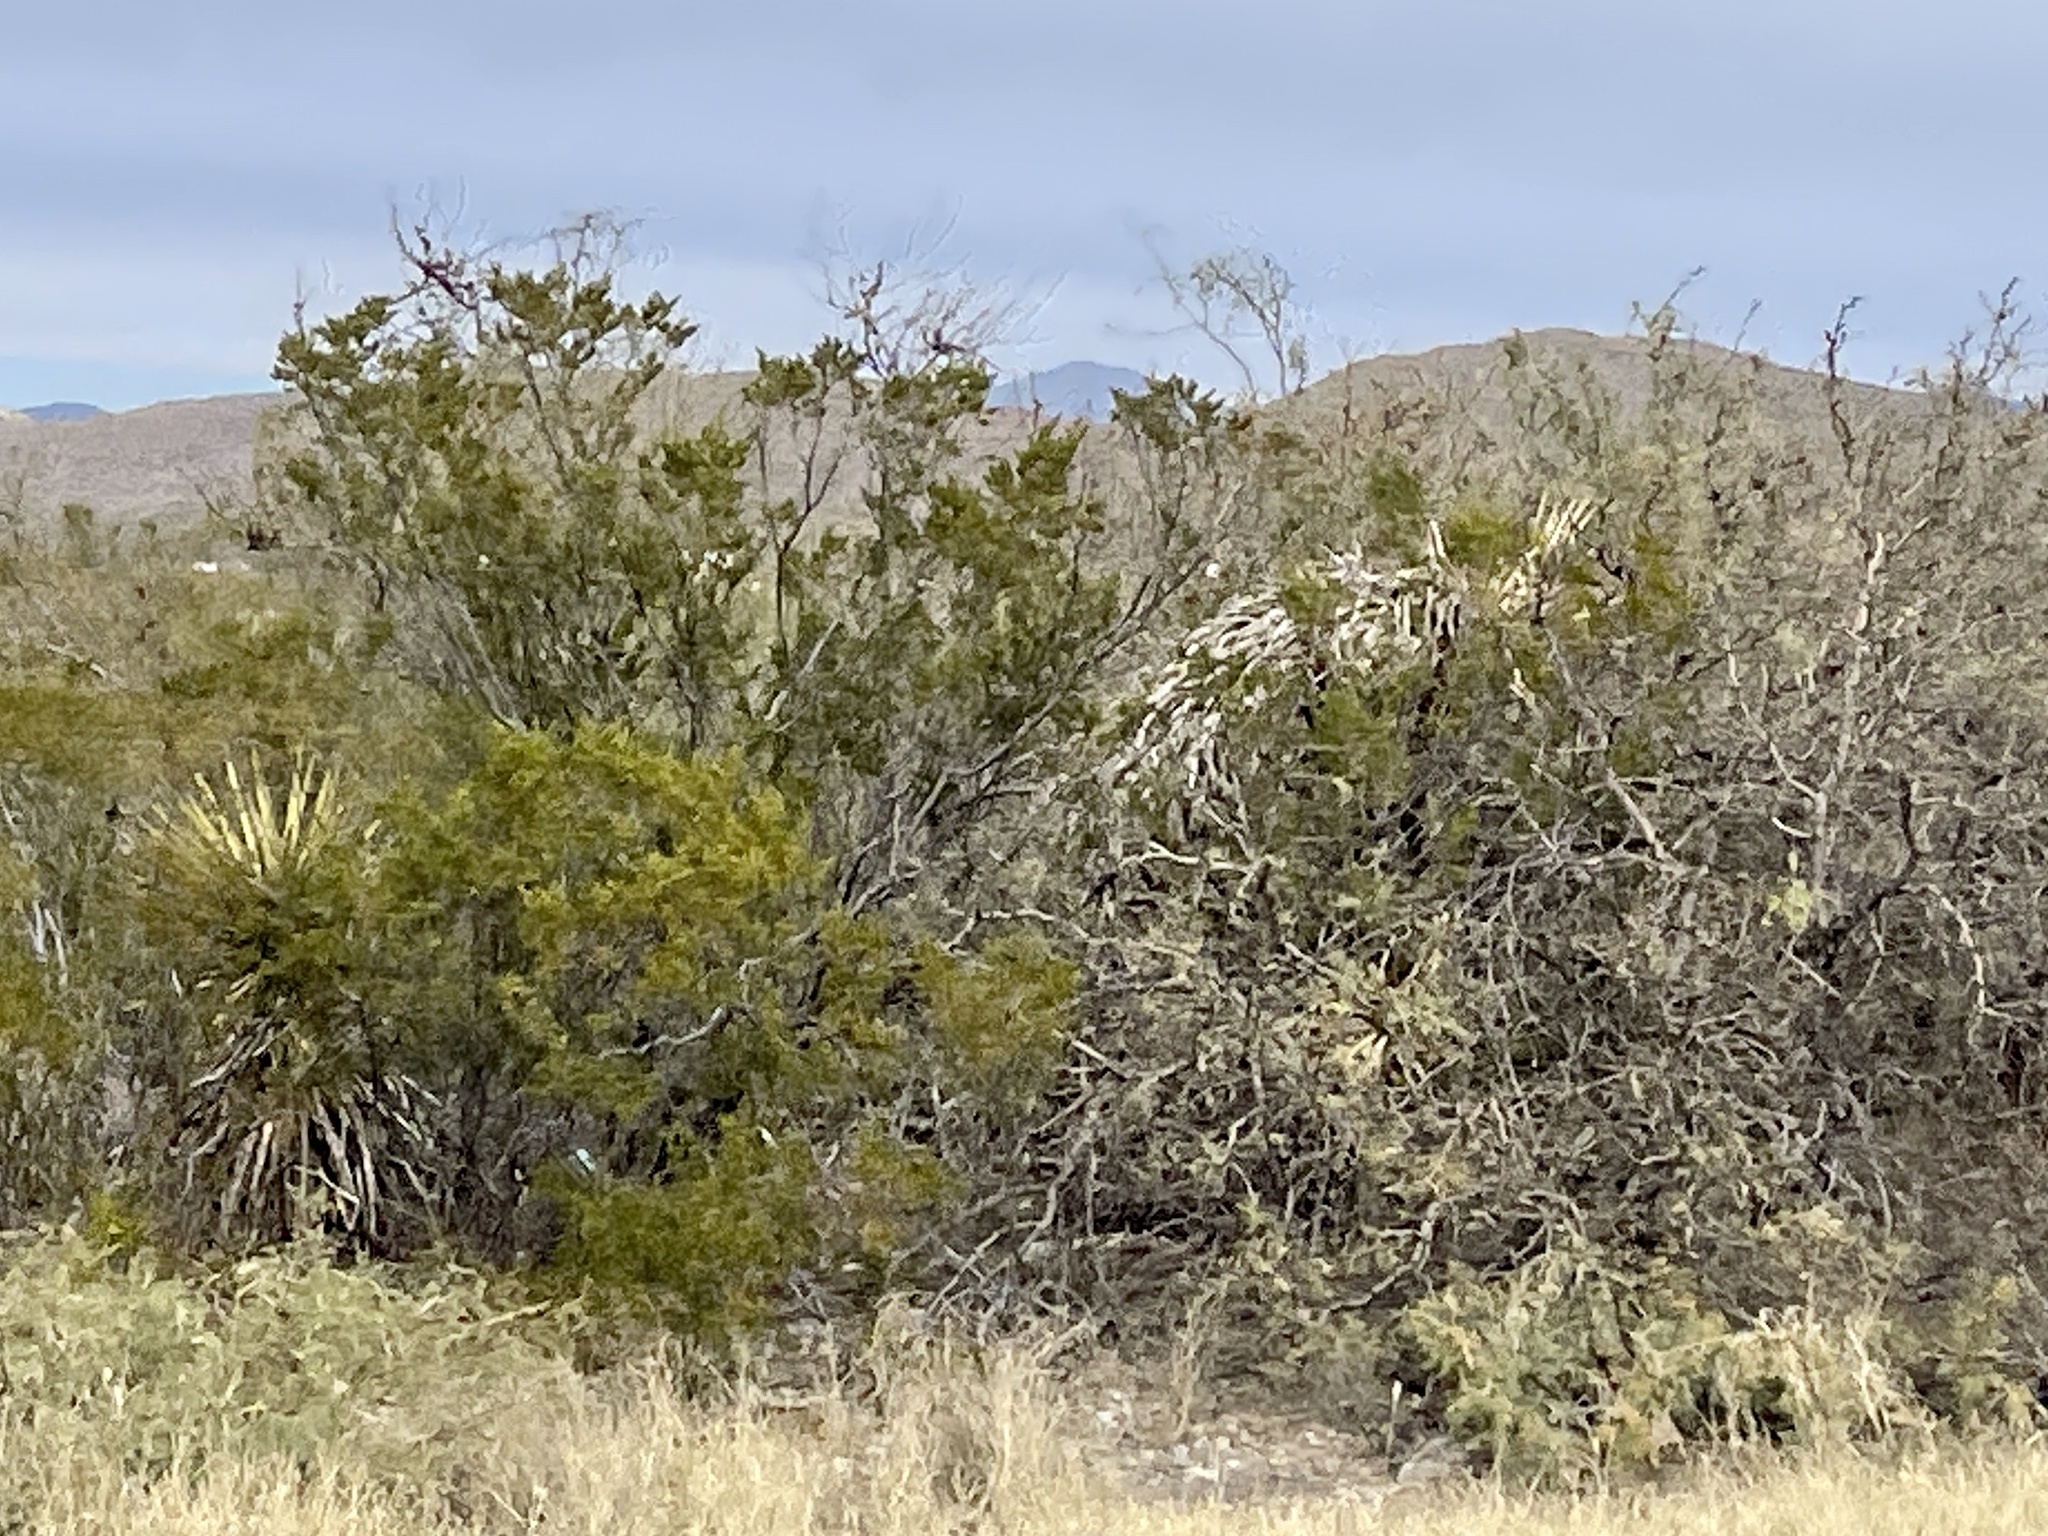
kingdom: Plantae
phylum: Tracheophyta
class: Magnoliopsida
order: Zygophyllales
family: Zygophyllaceae
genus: Larrea
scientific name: Larrea tridentata
